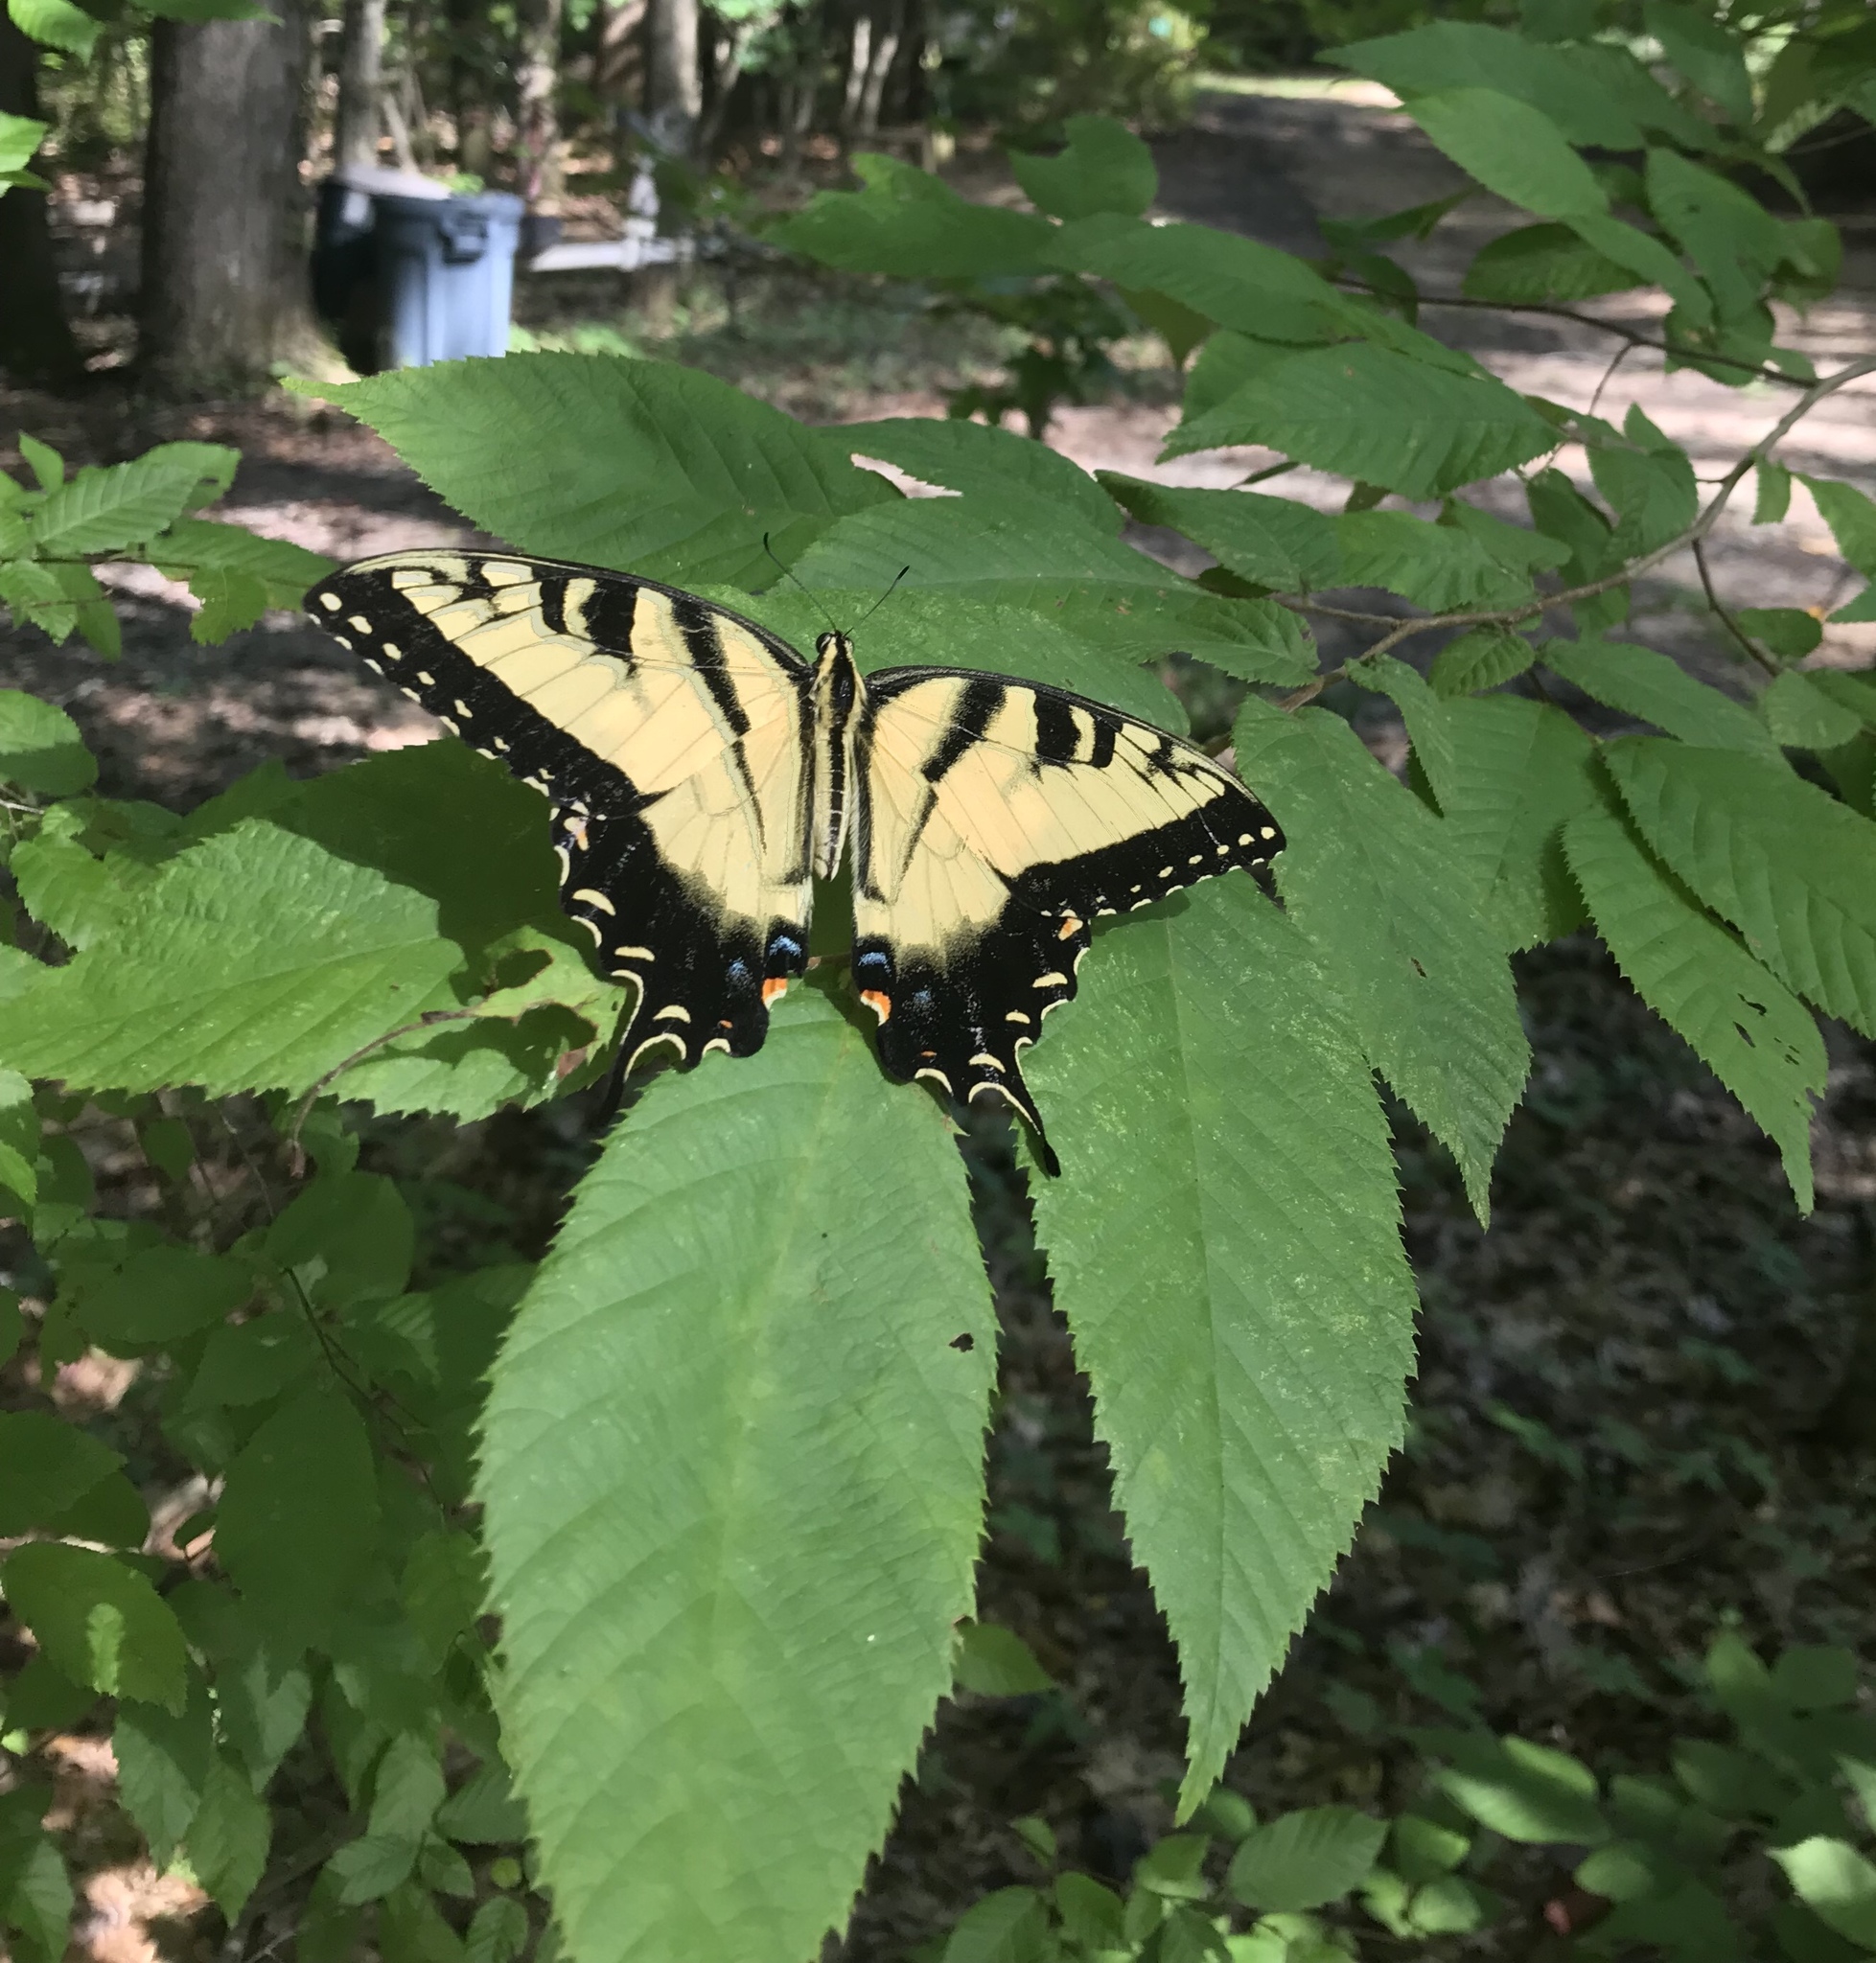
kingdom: Animalia
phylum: Arthropoda
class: Insecta
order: Lepidoptera
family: Papilionidae
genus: Papilio
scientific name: Papilio glaucus
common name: Tiger swallowtail
